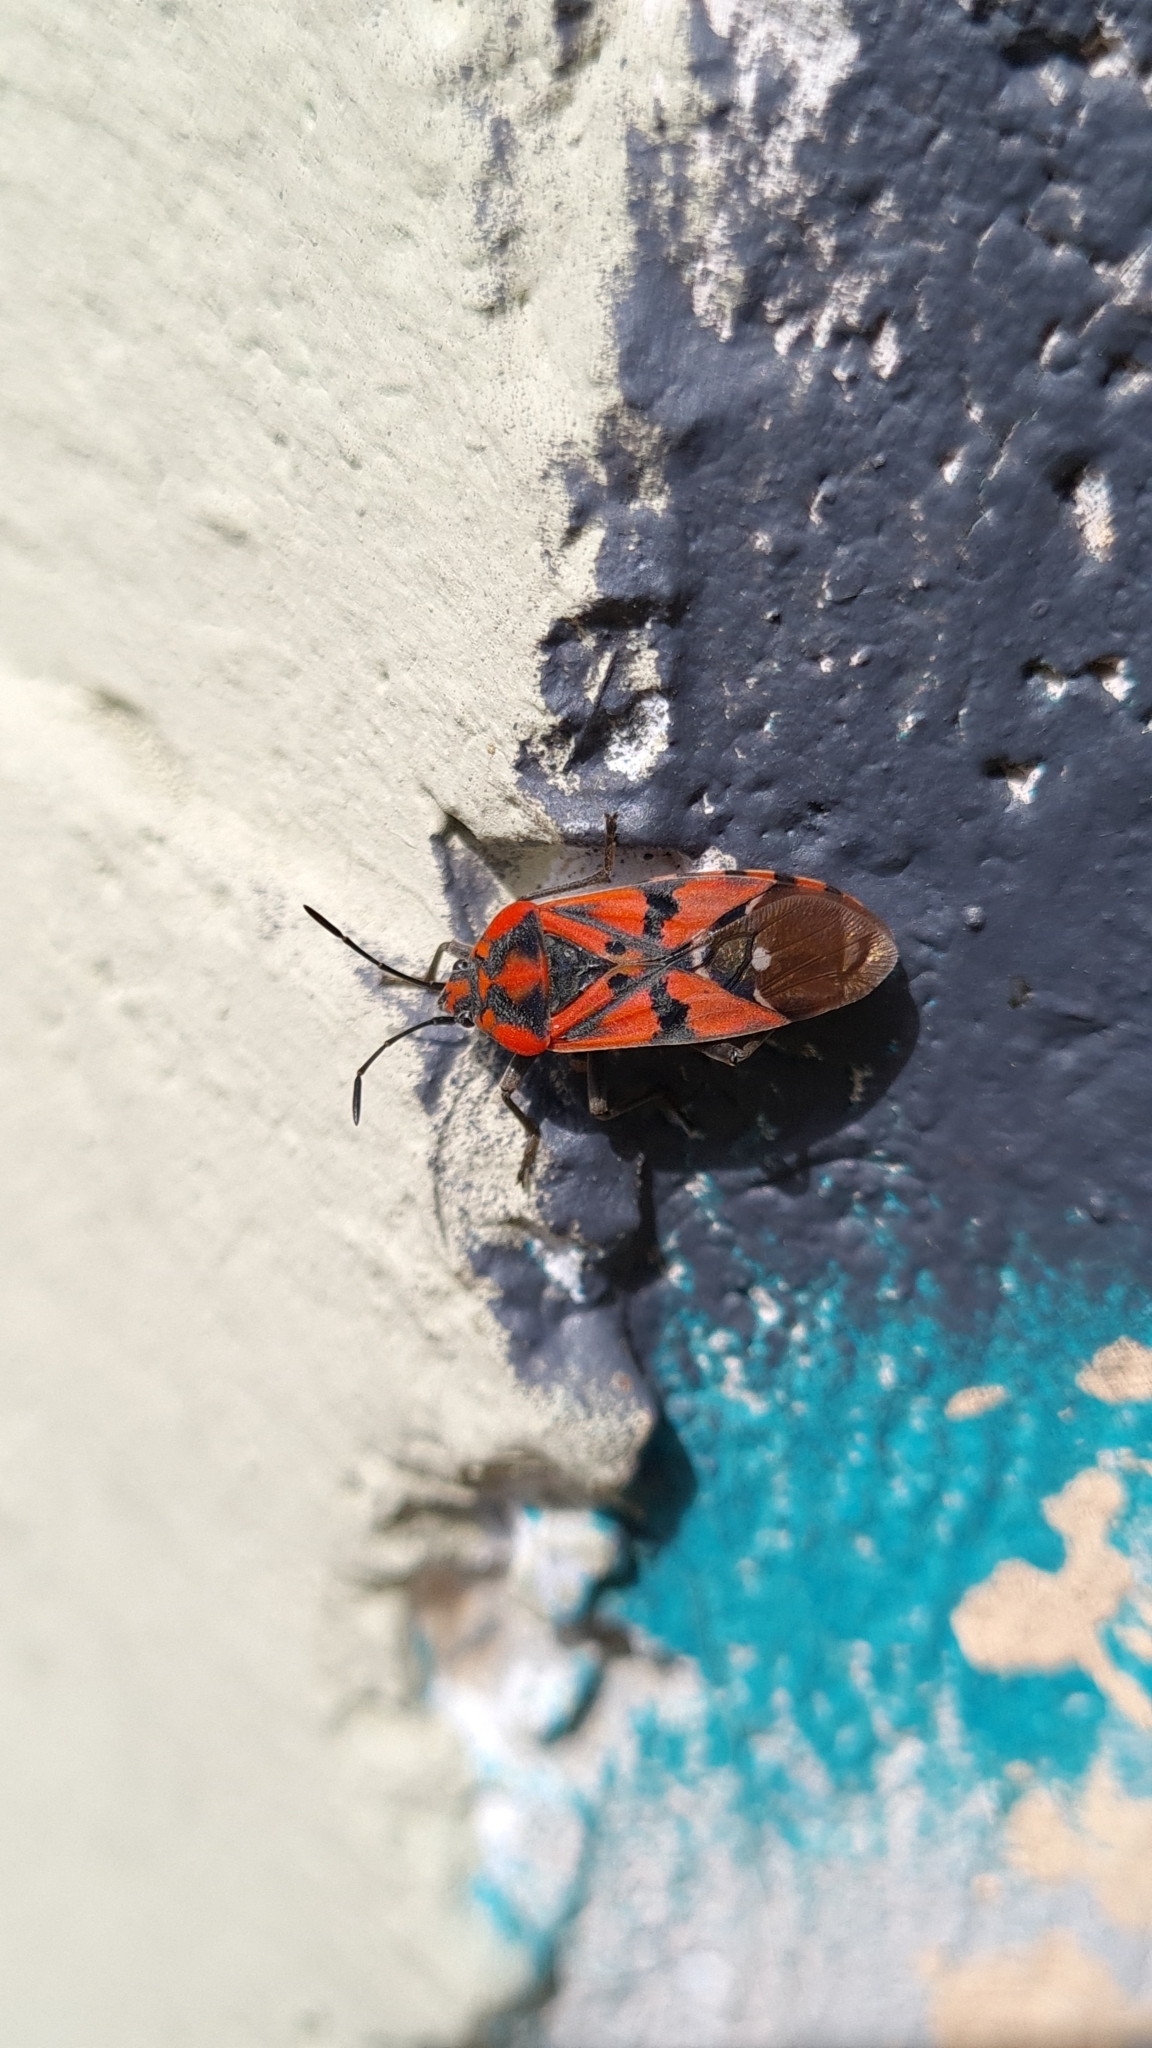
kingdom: Animalia
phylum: Arthropoda
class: Insecta
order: Hemiptera
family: Lygaeidae
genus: Spilostethus
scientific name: Spilostethus pandurus
